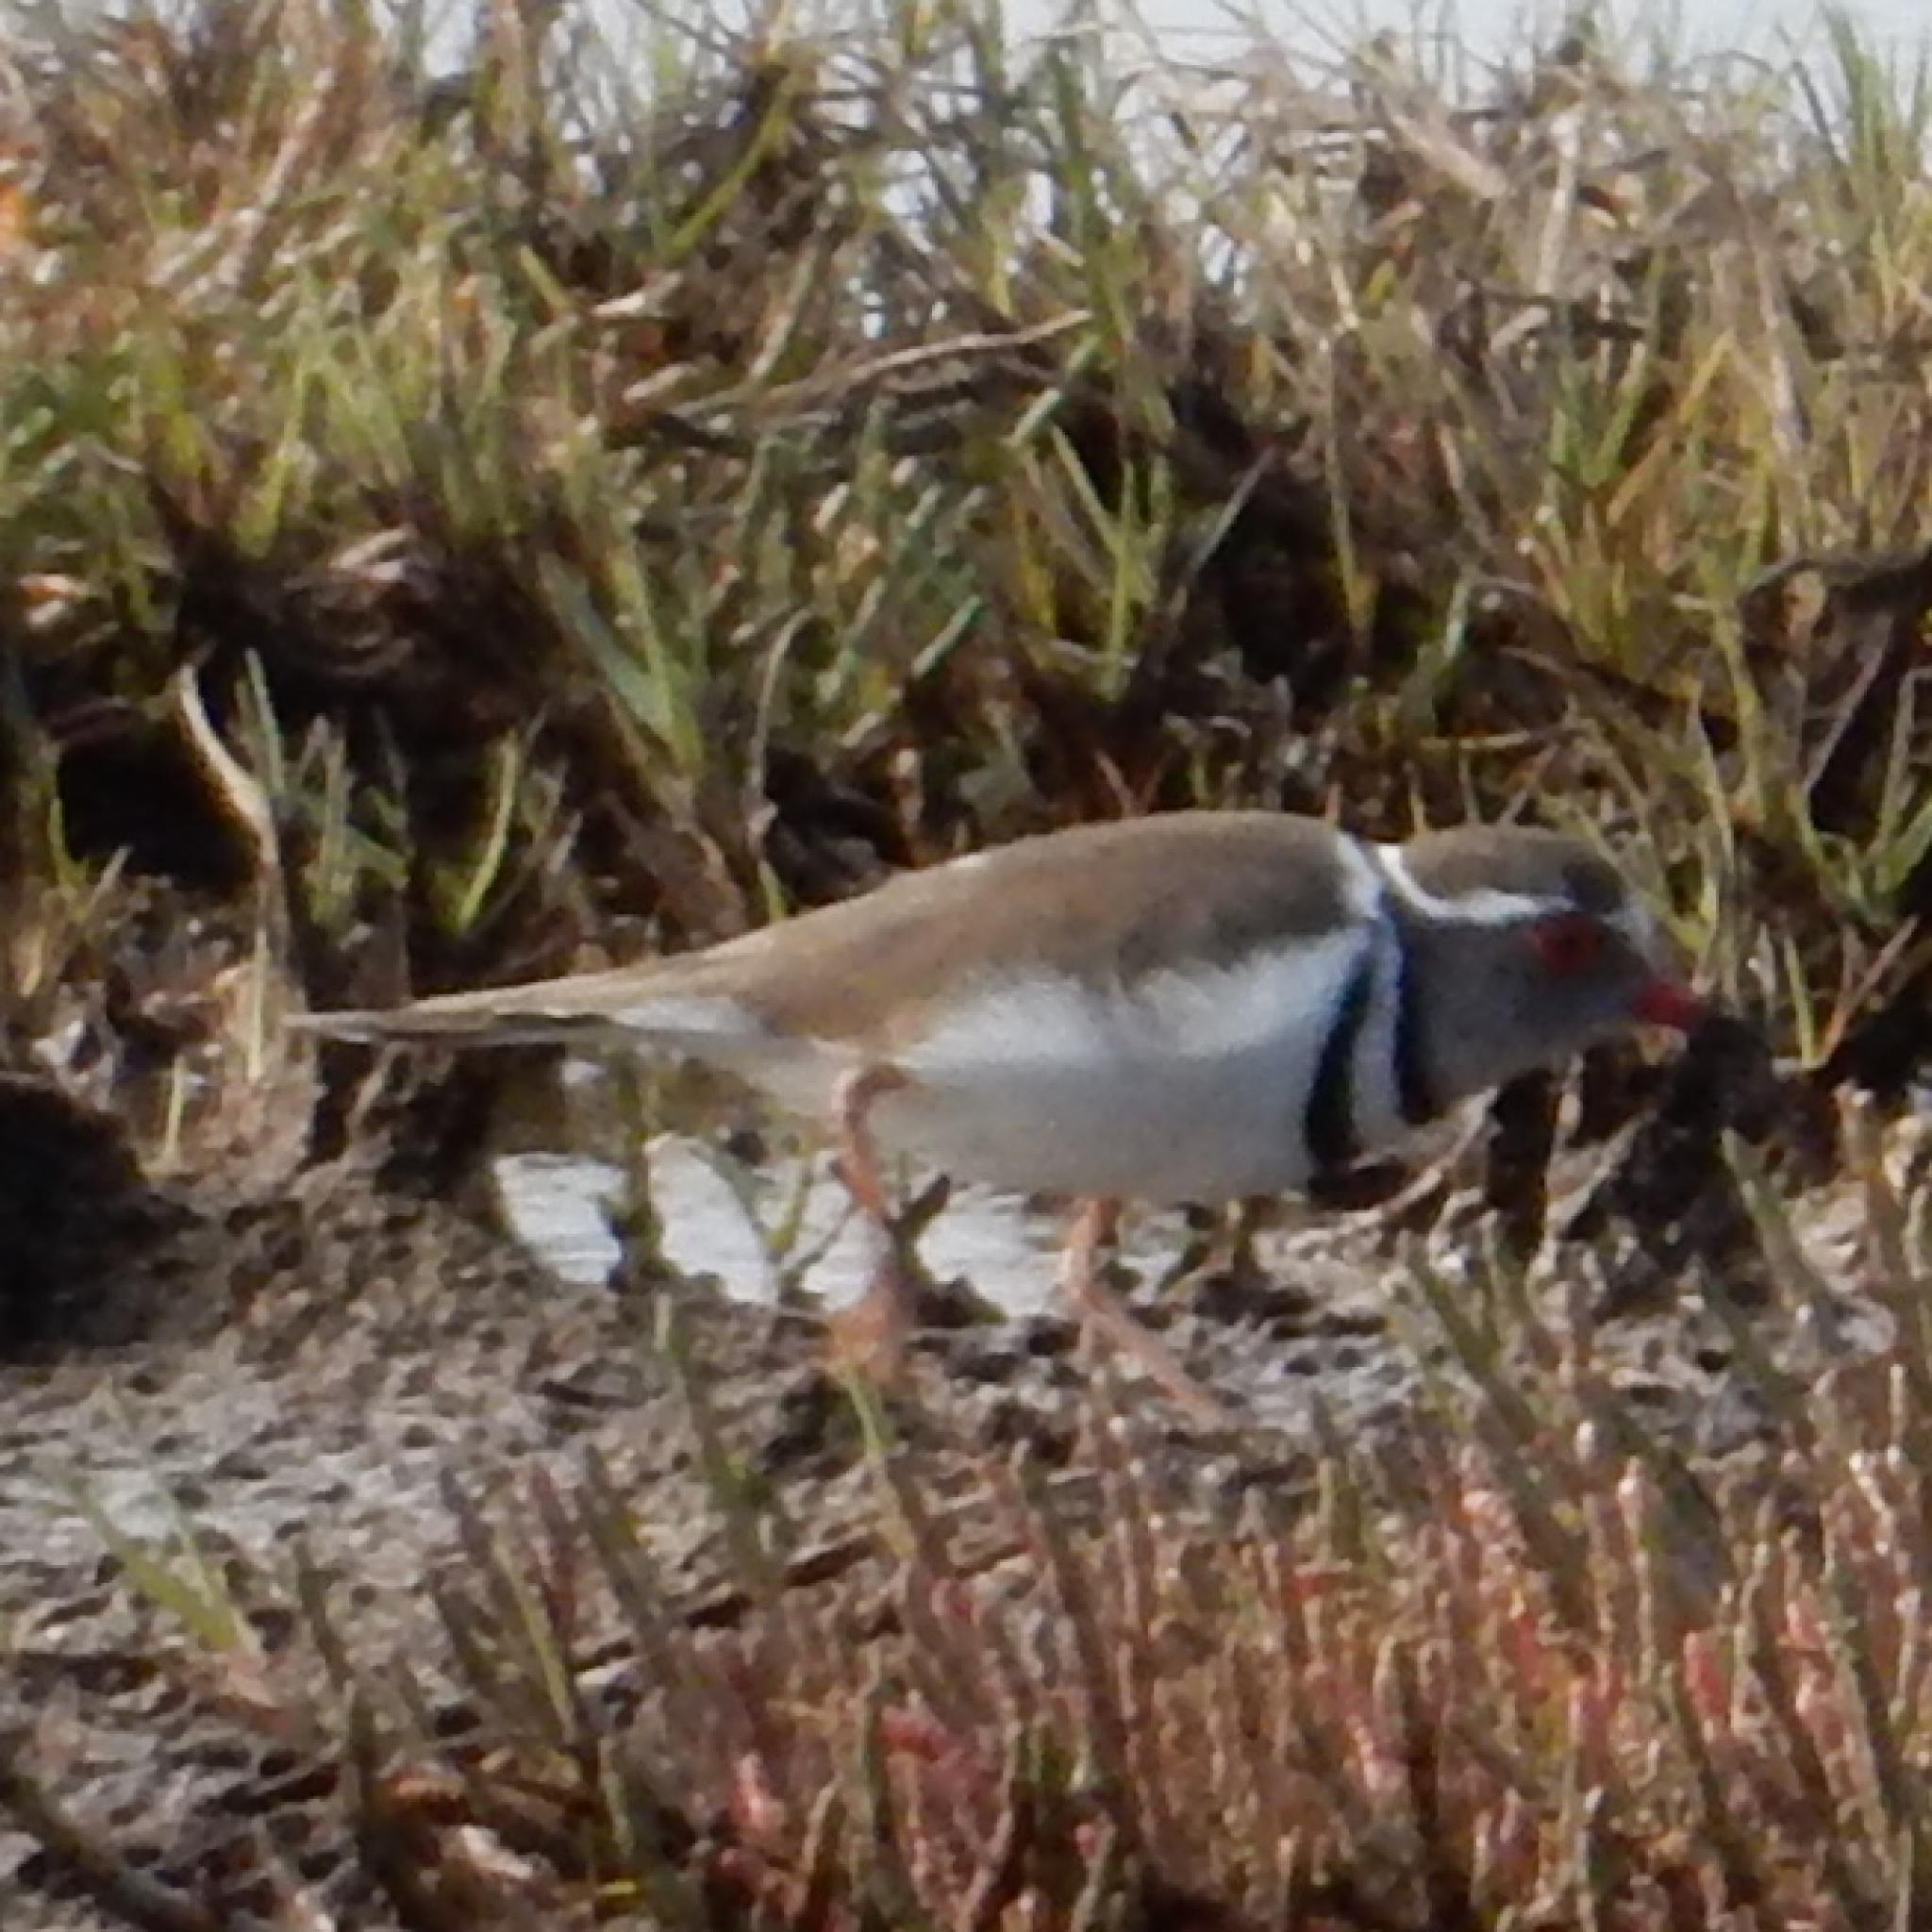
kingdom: Animalia
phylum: Chordata
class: Aves
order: Charadriiformes
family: Charadriidae
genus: Charadrius
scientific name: Charadrius tricollaris
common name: Three-banded plover
